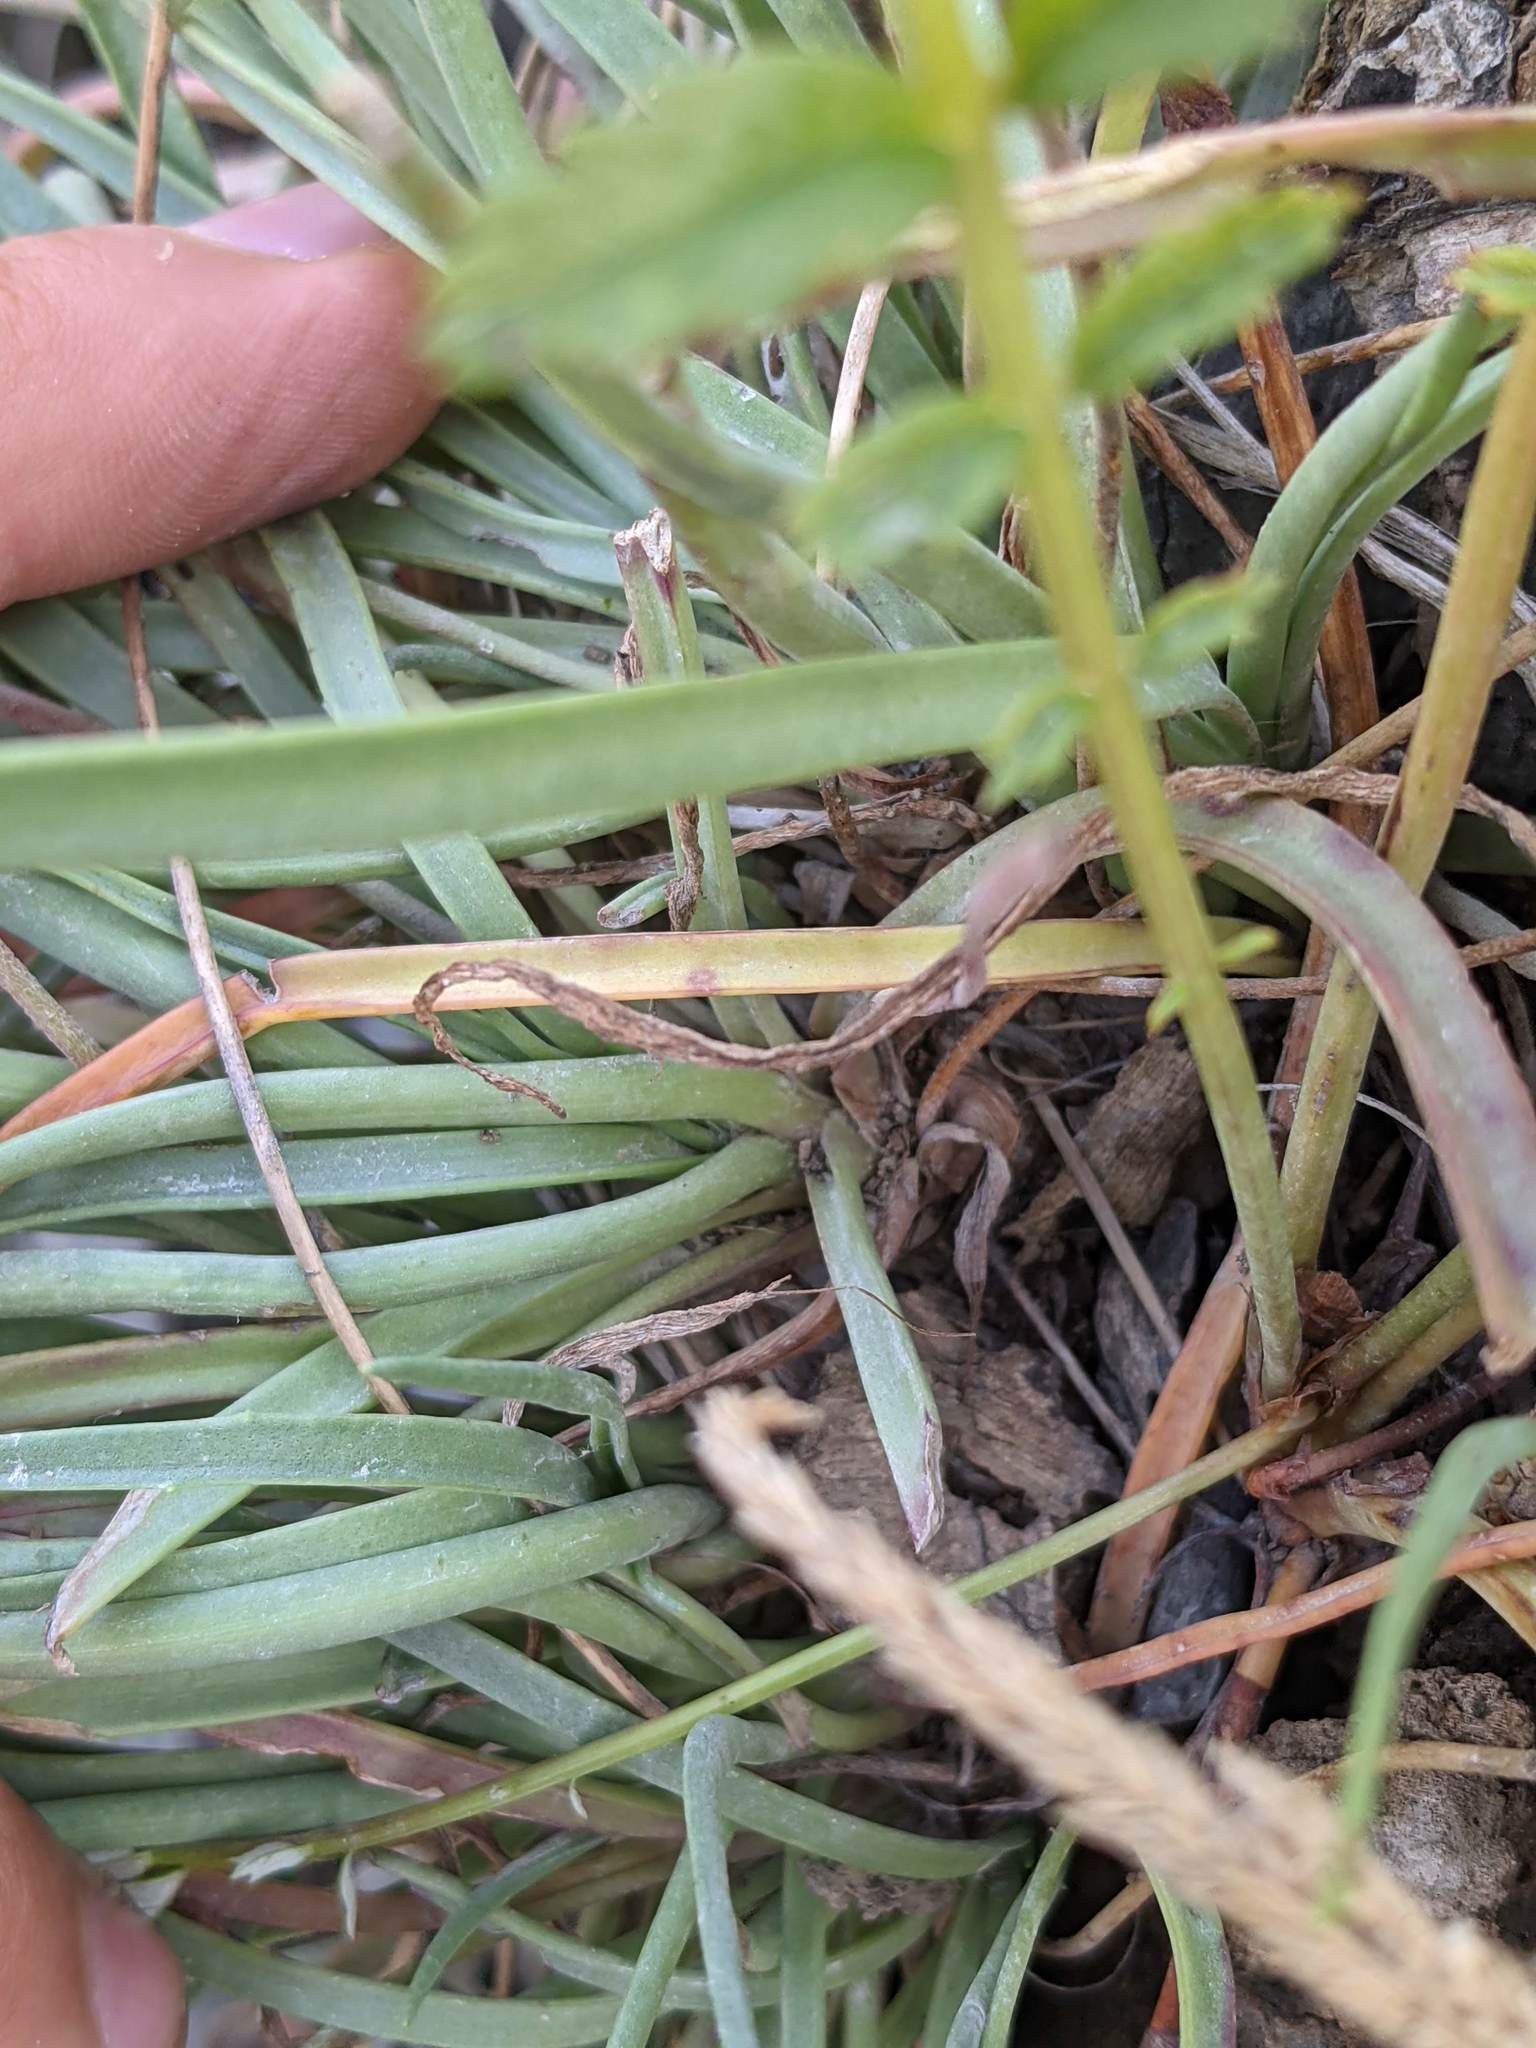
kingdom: Plantae
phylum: Tracheophyta
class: Magnoliopsida
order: Lamiales
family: Plantaginaceae
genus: Plantago
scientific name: Plantago maritima
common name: Sea plantain
